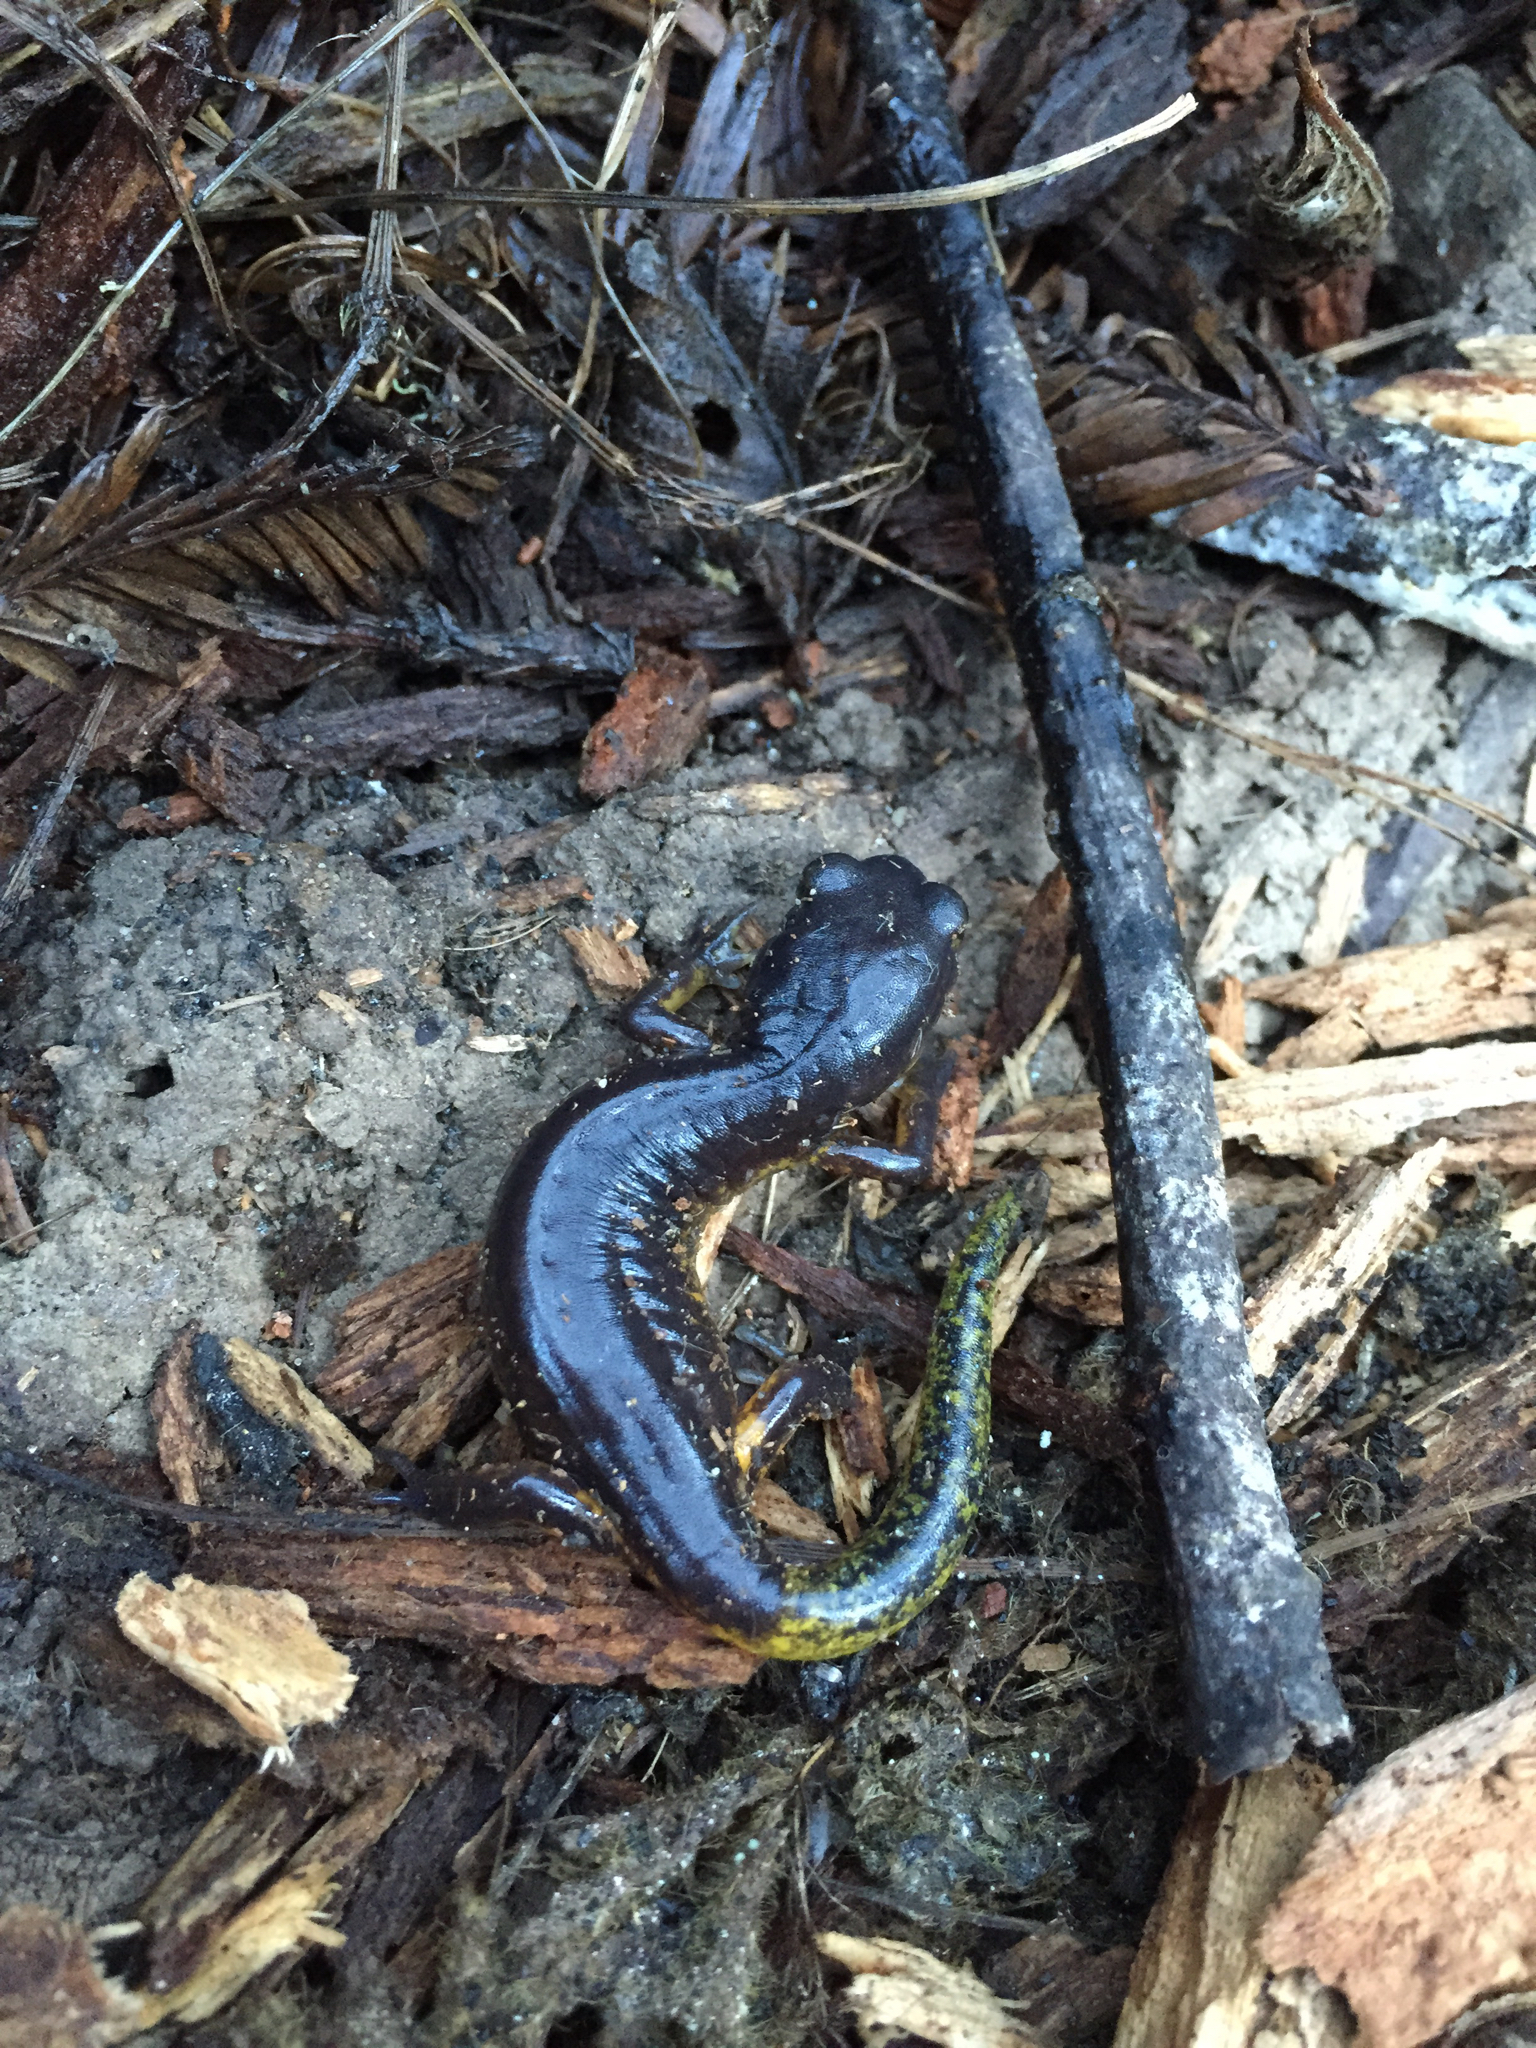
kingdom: Animalia
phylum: Chordata
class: Amphibia
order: Caudata
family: Plethodontidae
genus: Ensatina
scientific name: Ensatina eschscholtzii
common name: Ensatina
